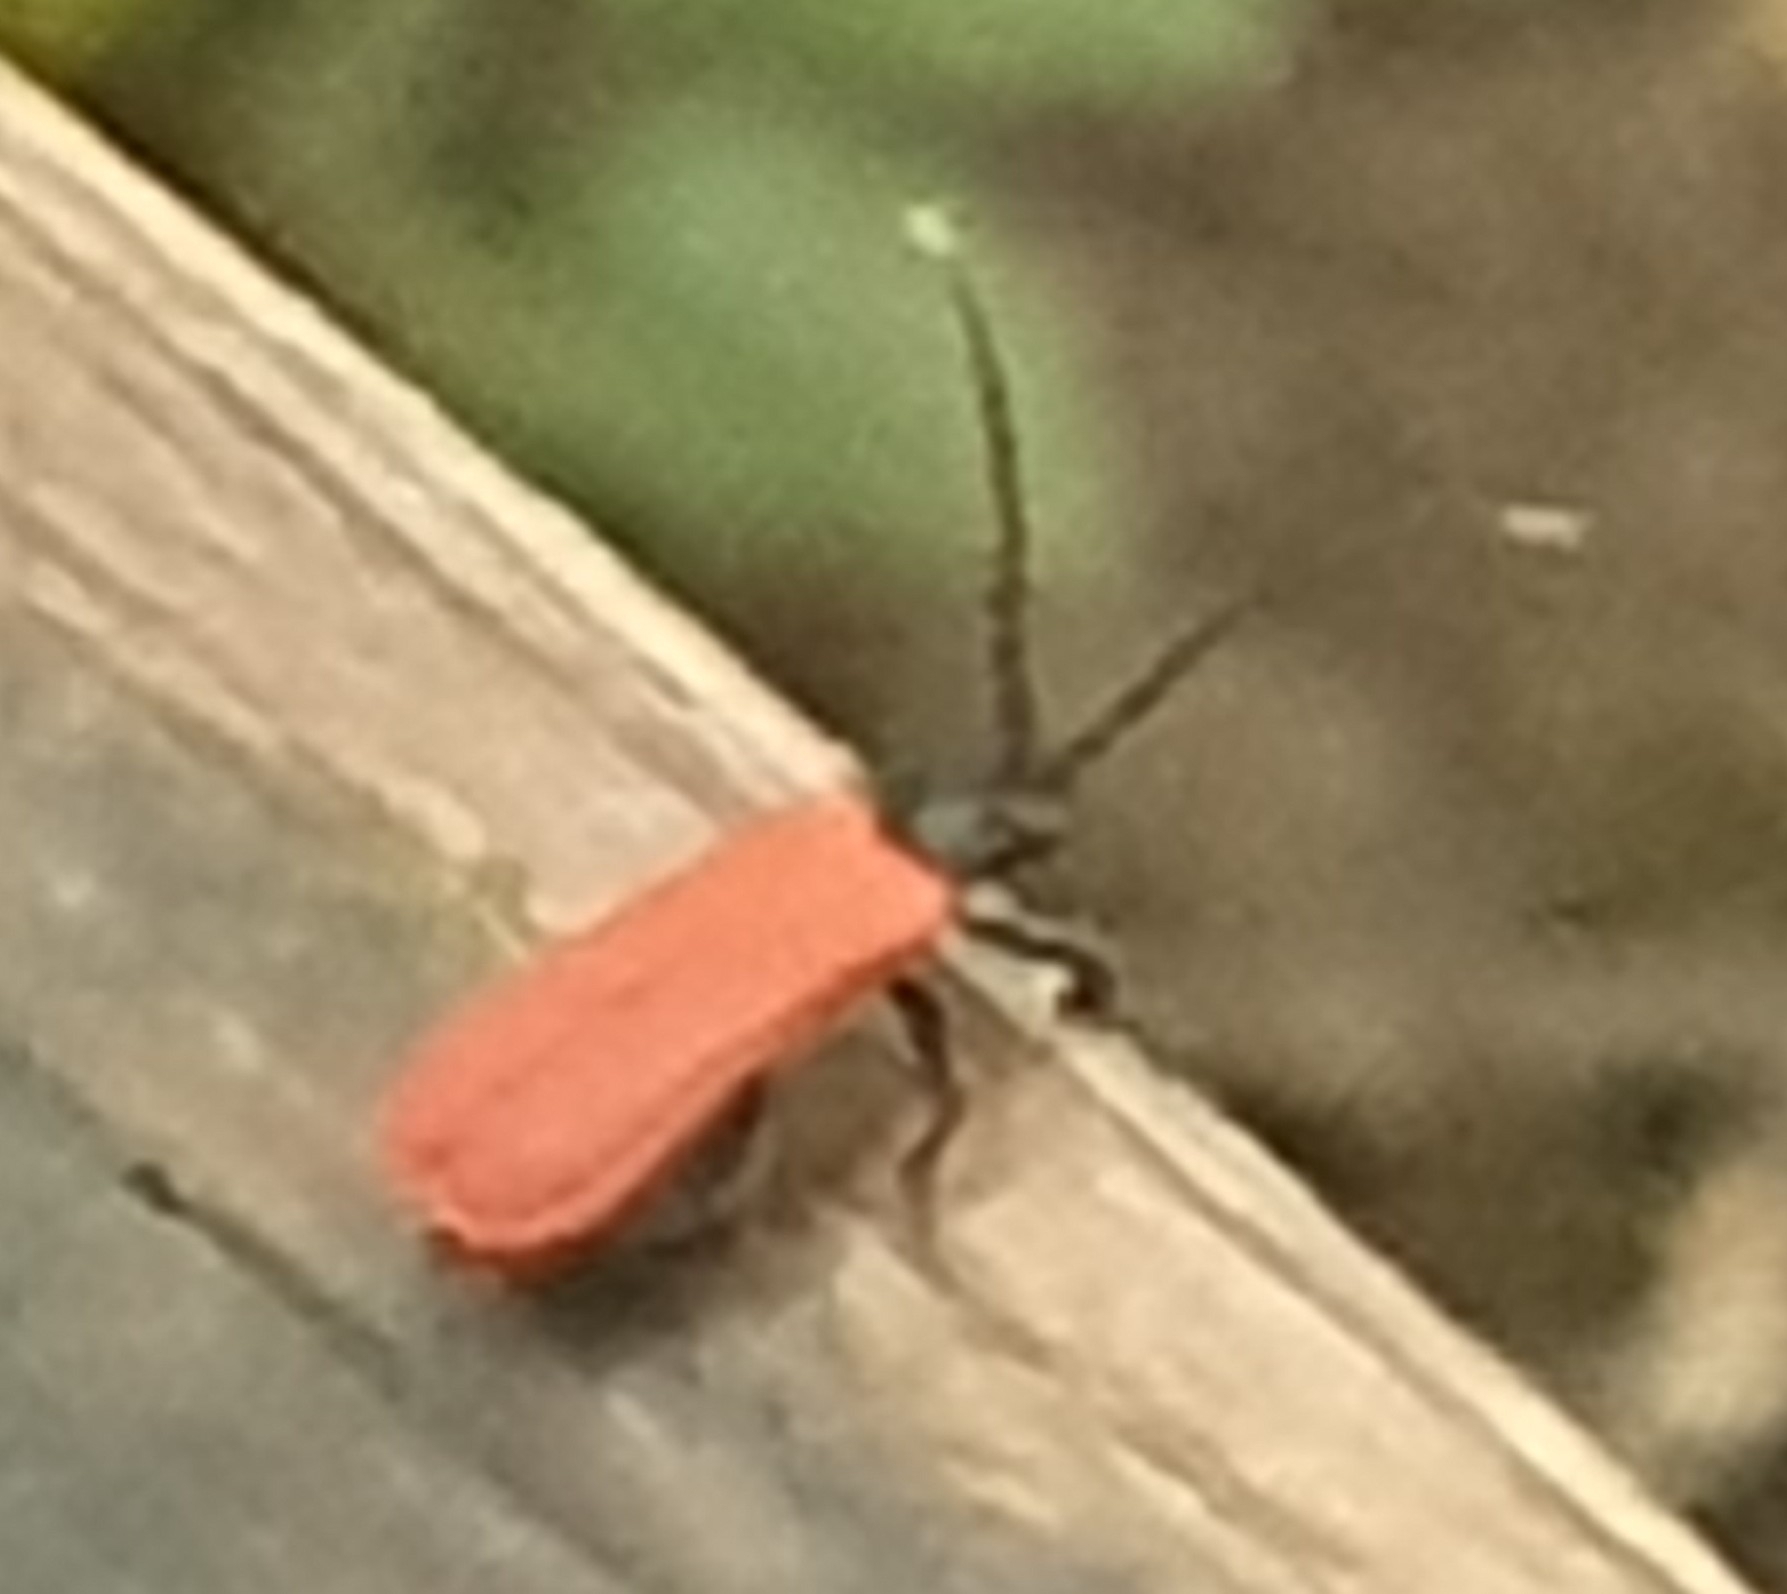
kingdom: Animalia
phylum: Arthropoda
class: Insecta
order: Coleoptera
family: Lycidae
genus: Platycis
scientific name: Platycis minutus
